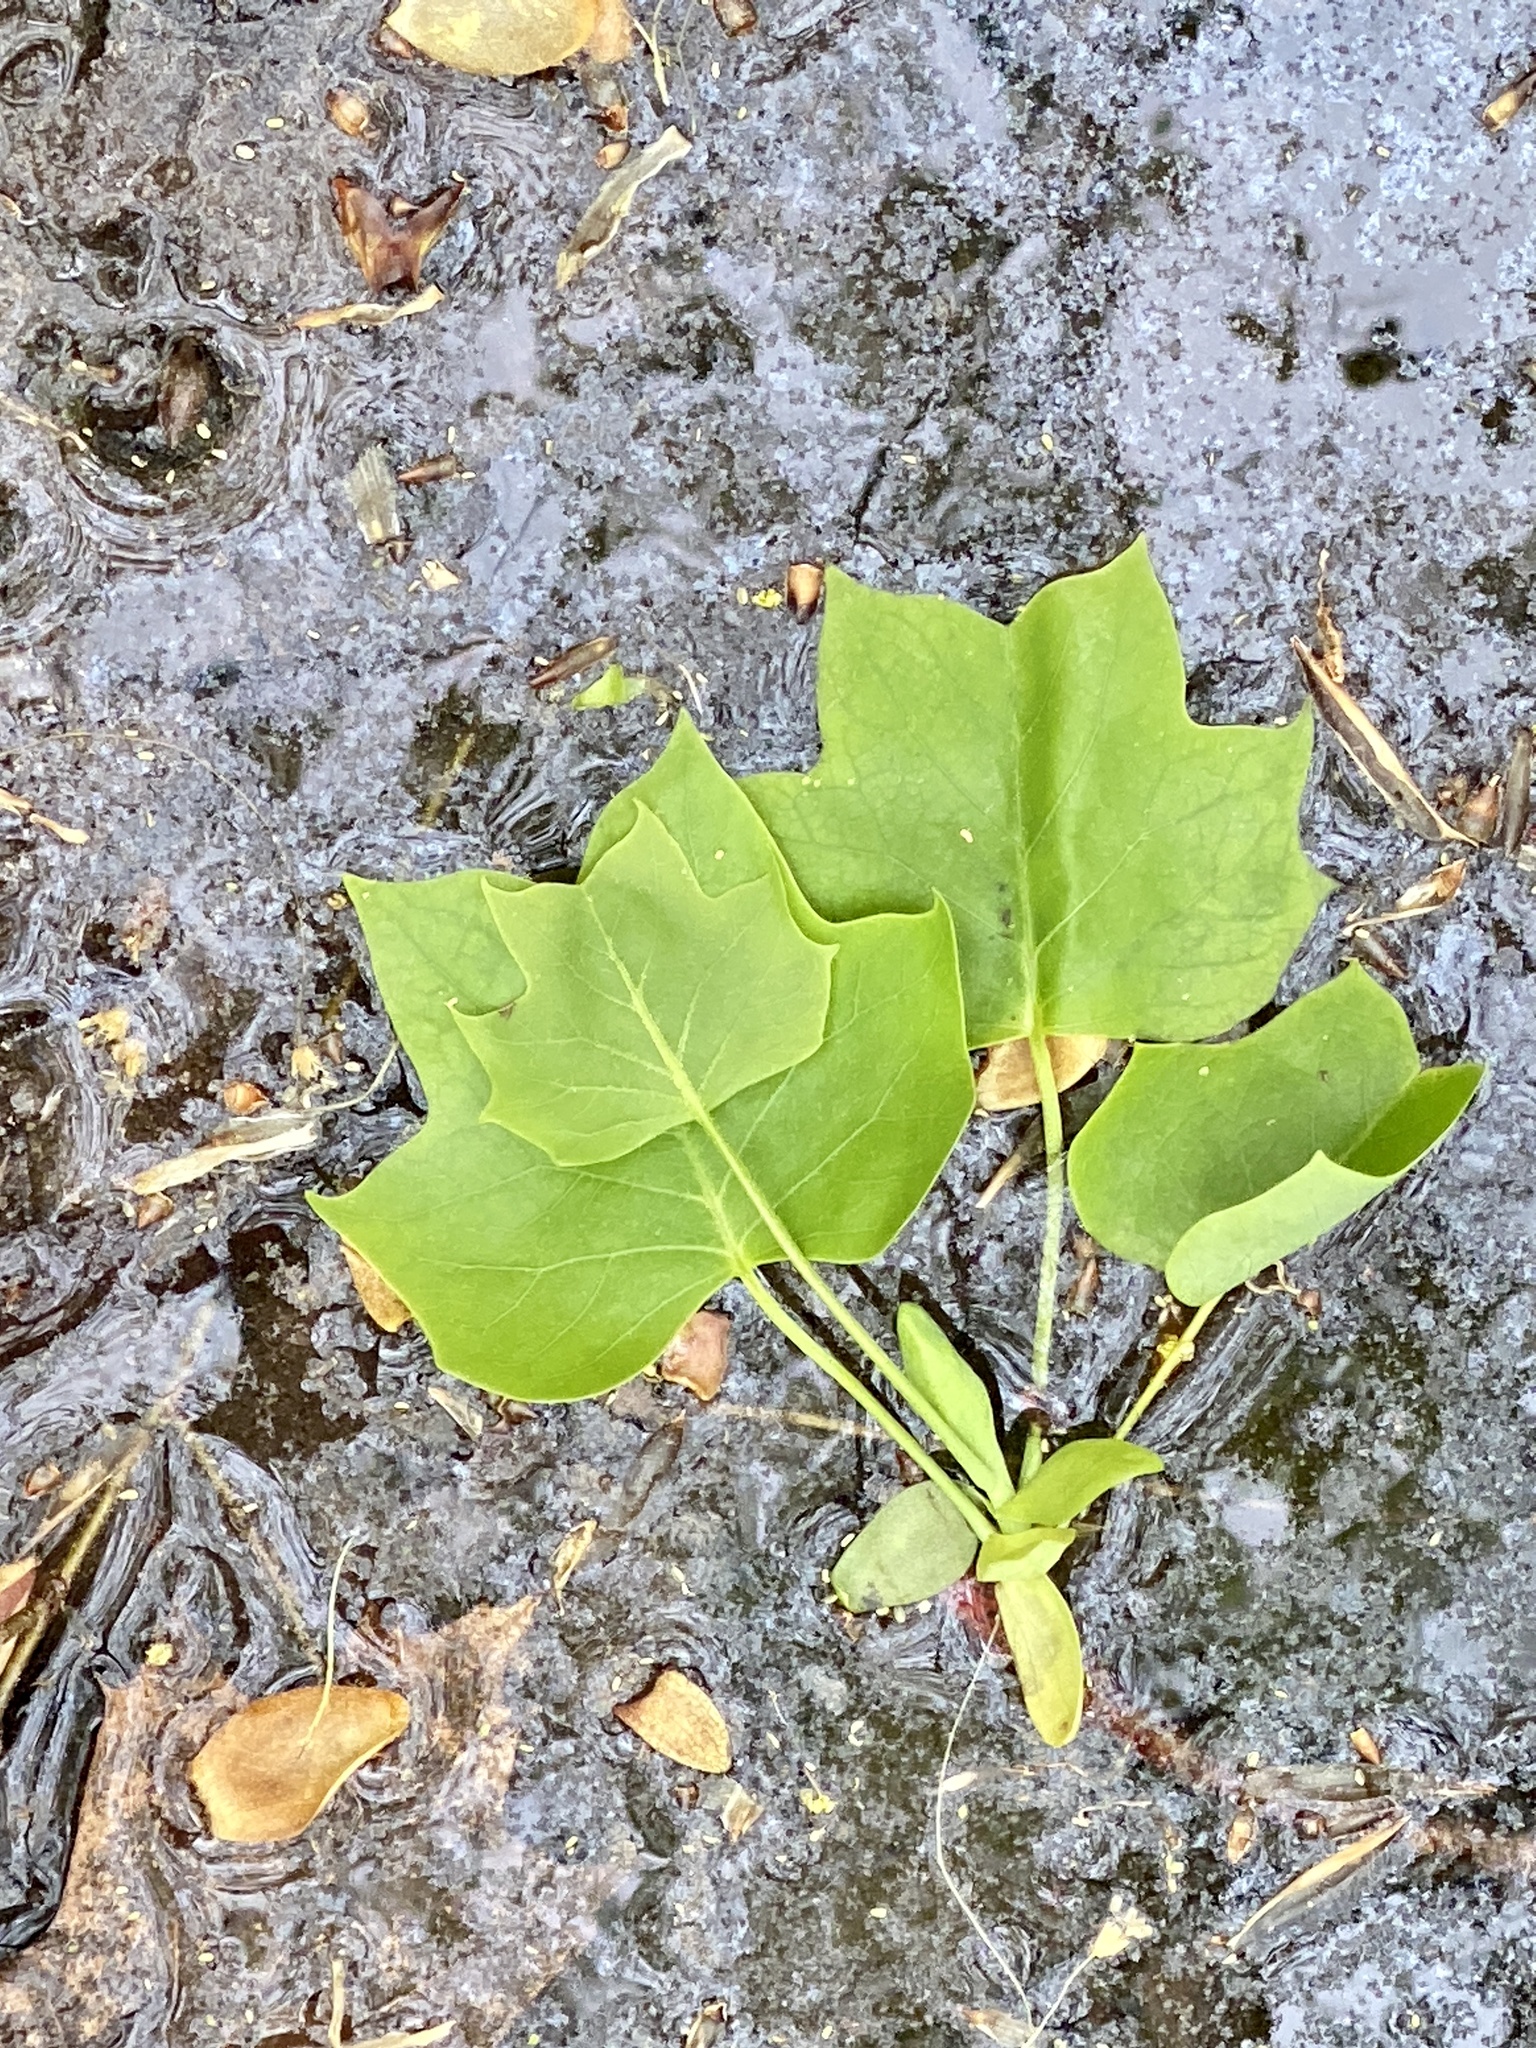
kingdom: Plantae
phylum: Tracheophyta
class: Magnoliopsida
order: Magnoliales
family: Magnoliaceae
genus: Liriodendron
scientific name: Liriodendron tulipifera
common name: Tulip tree
